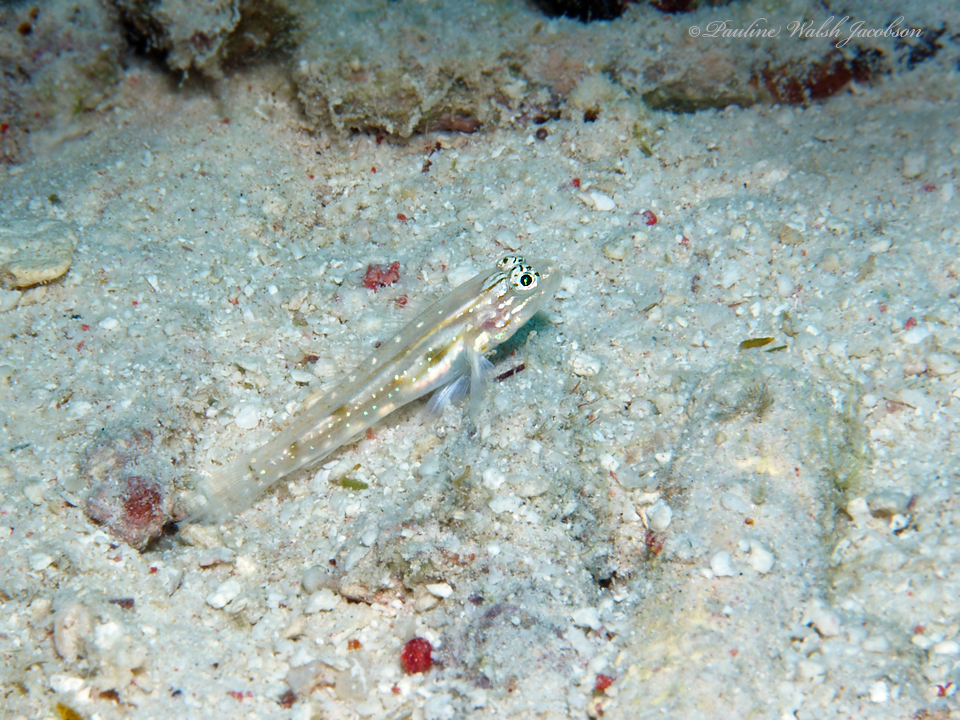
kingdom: Animalia
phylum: Chordata
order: Perciformes
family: Gobiidae
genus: Coryphopterus
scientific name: Coryphopterus venezuelae
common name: Sand-canyon goby
